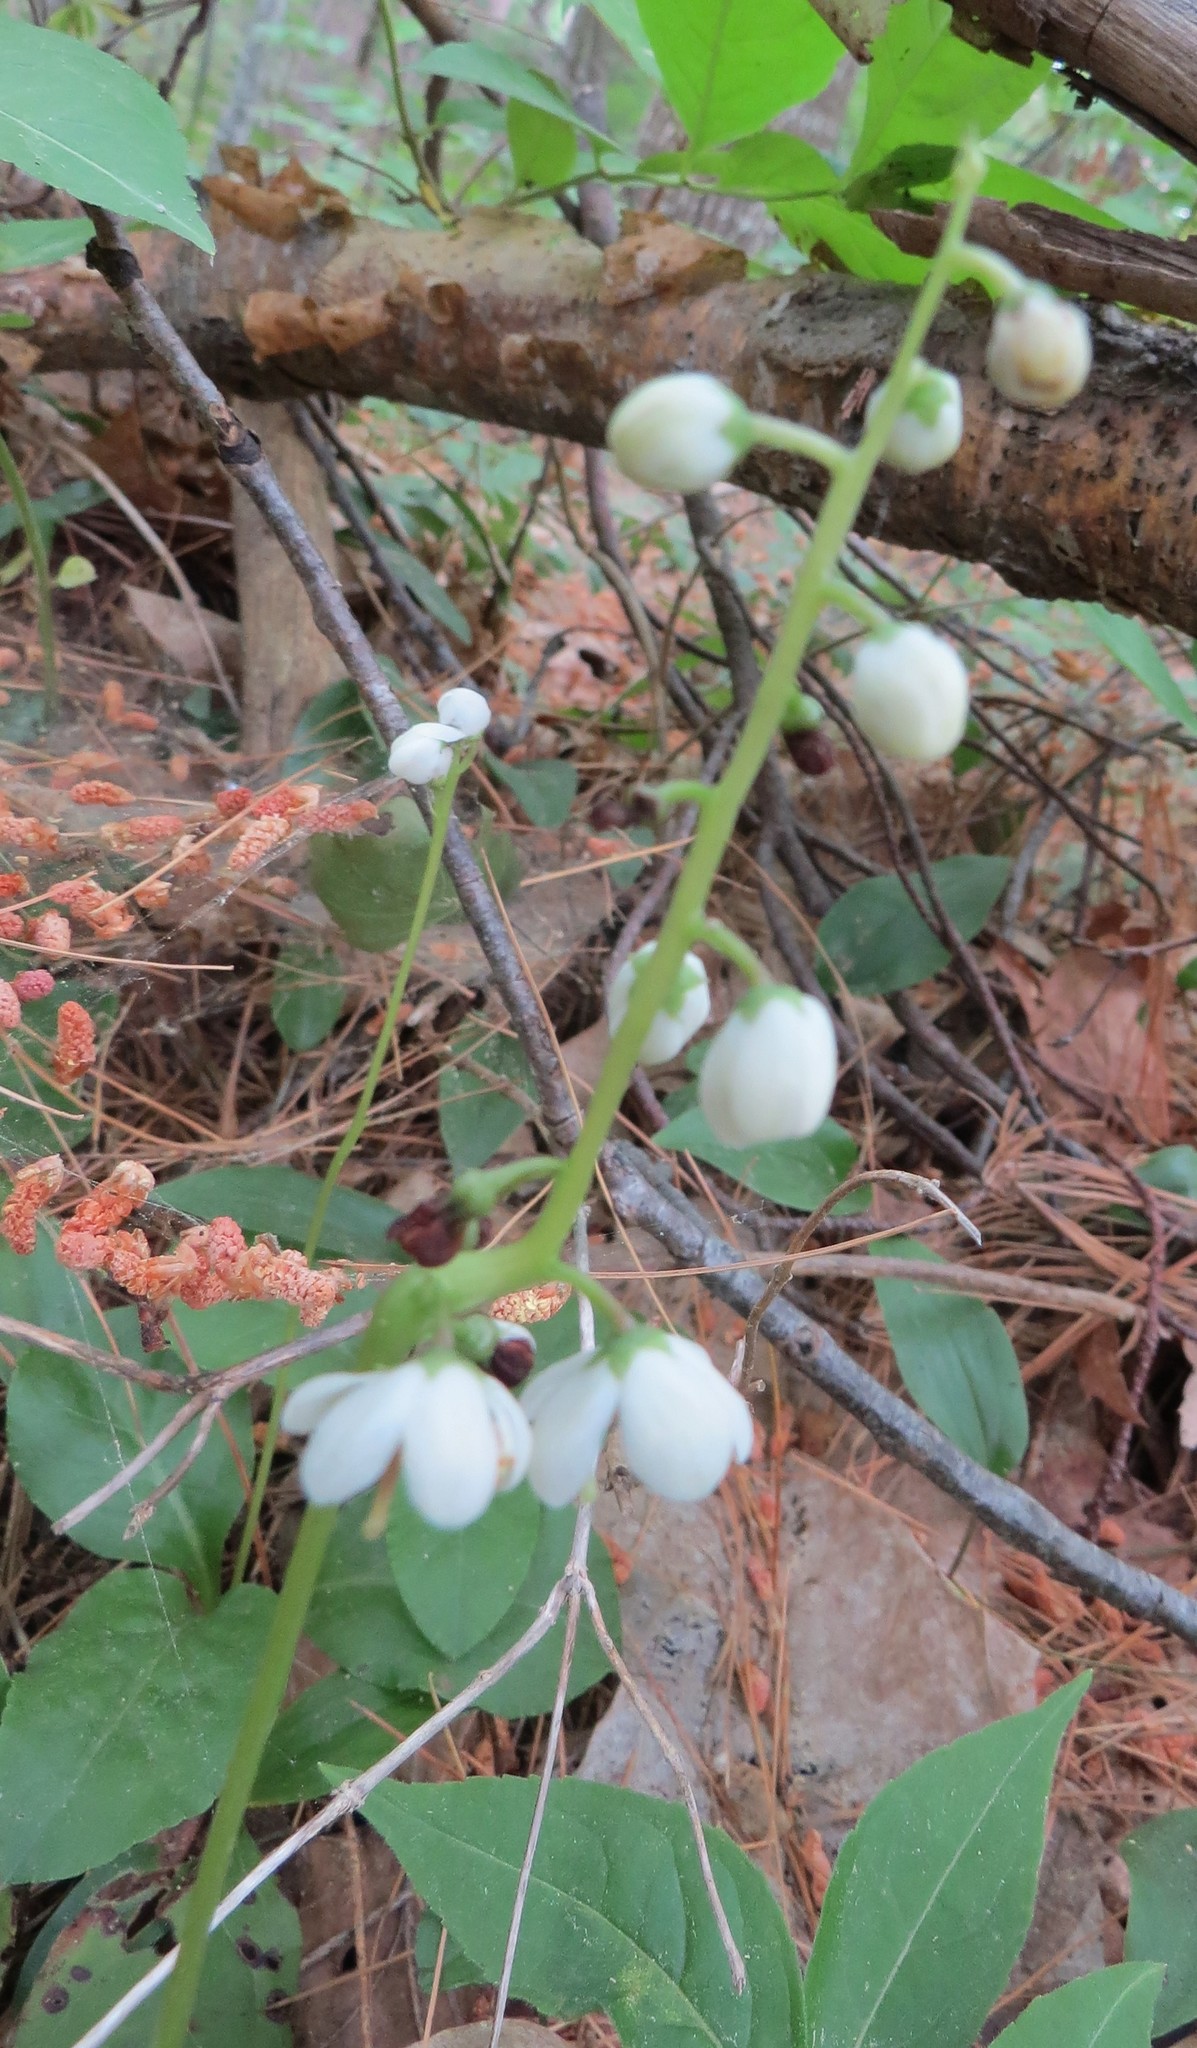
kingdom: Plantae
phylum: Tracheophyta
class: Magnoliopsida
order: Ericales
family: Ericaceae
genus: Pyrola
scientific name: Pyrola elliptica
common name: Shinleaf
